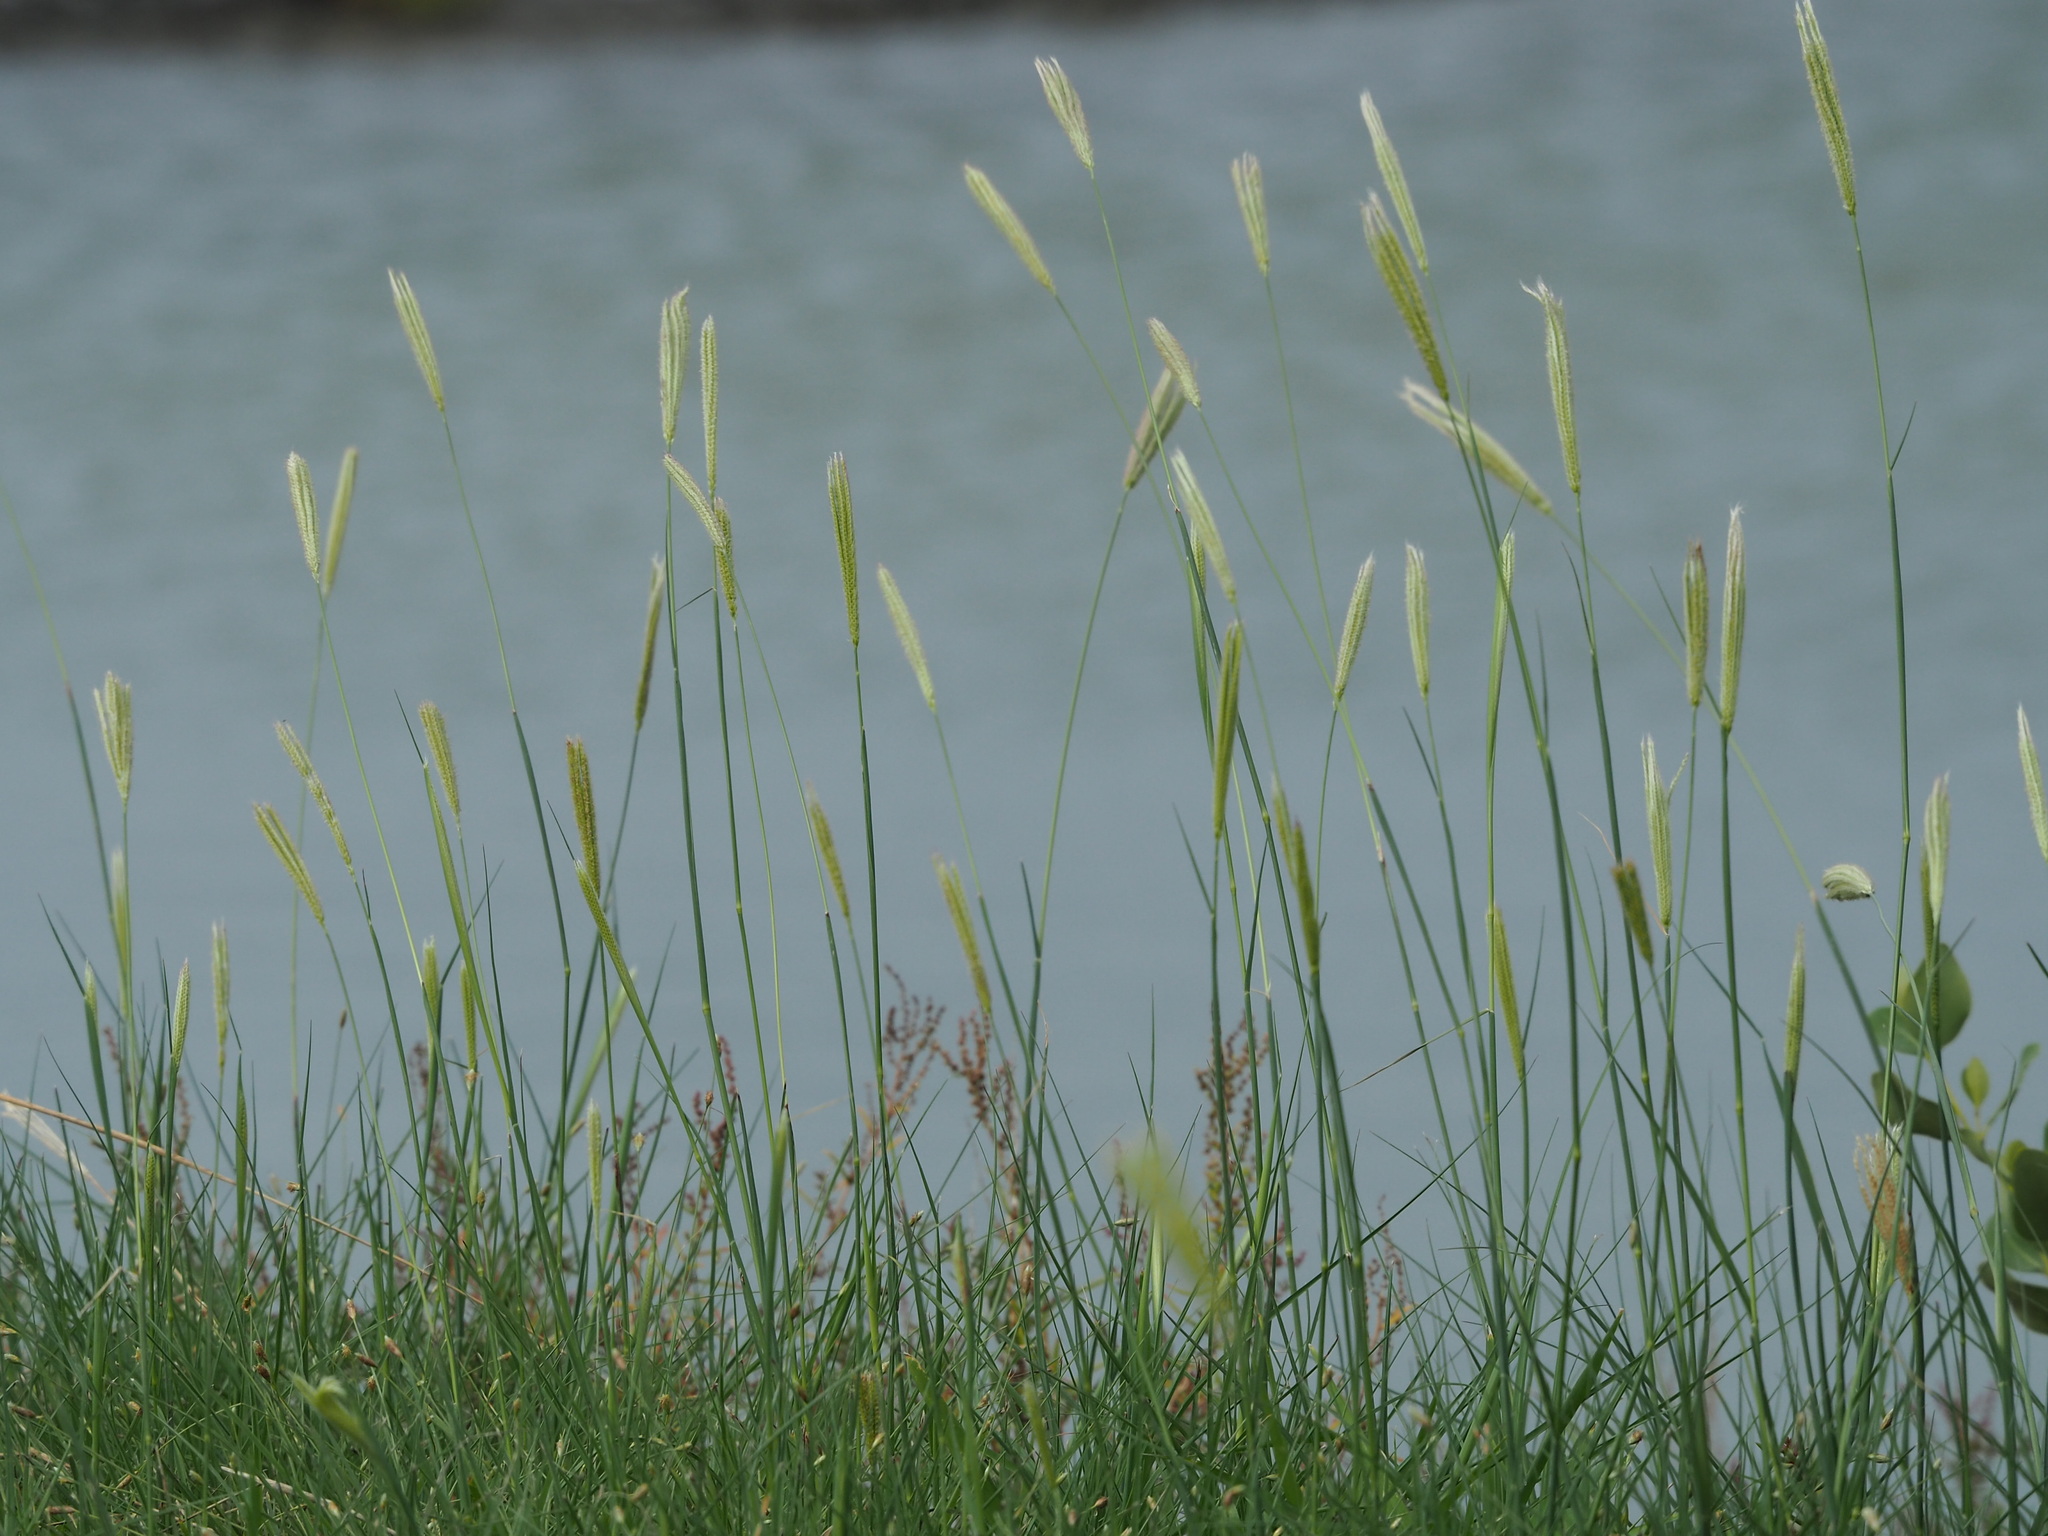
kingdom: Plantae
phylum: Tracheophyta
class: Liliopsida
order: Poales
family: Poaceae
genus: Chloris
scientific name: Chloris formosana
